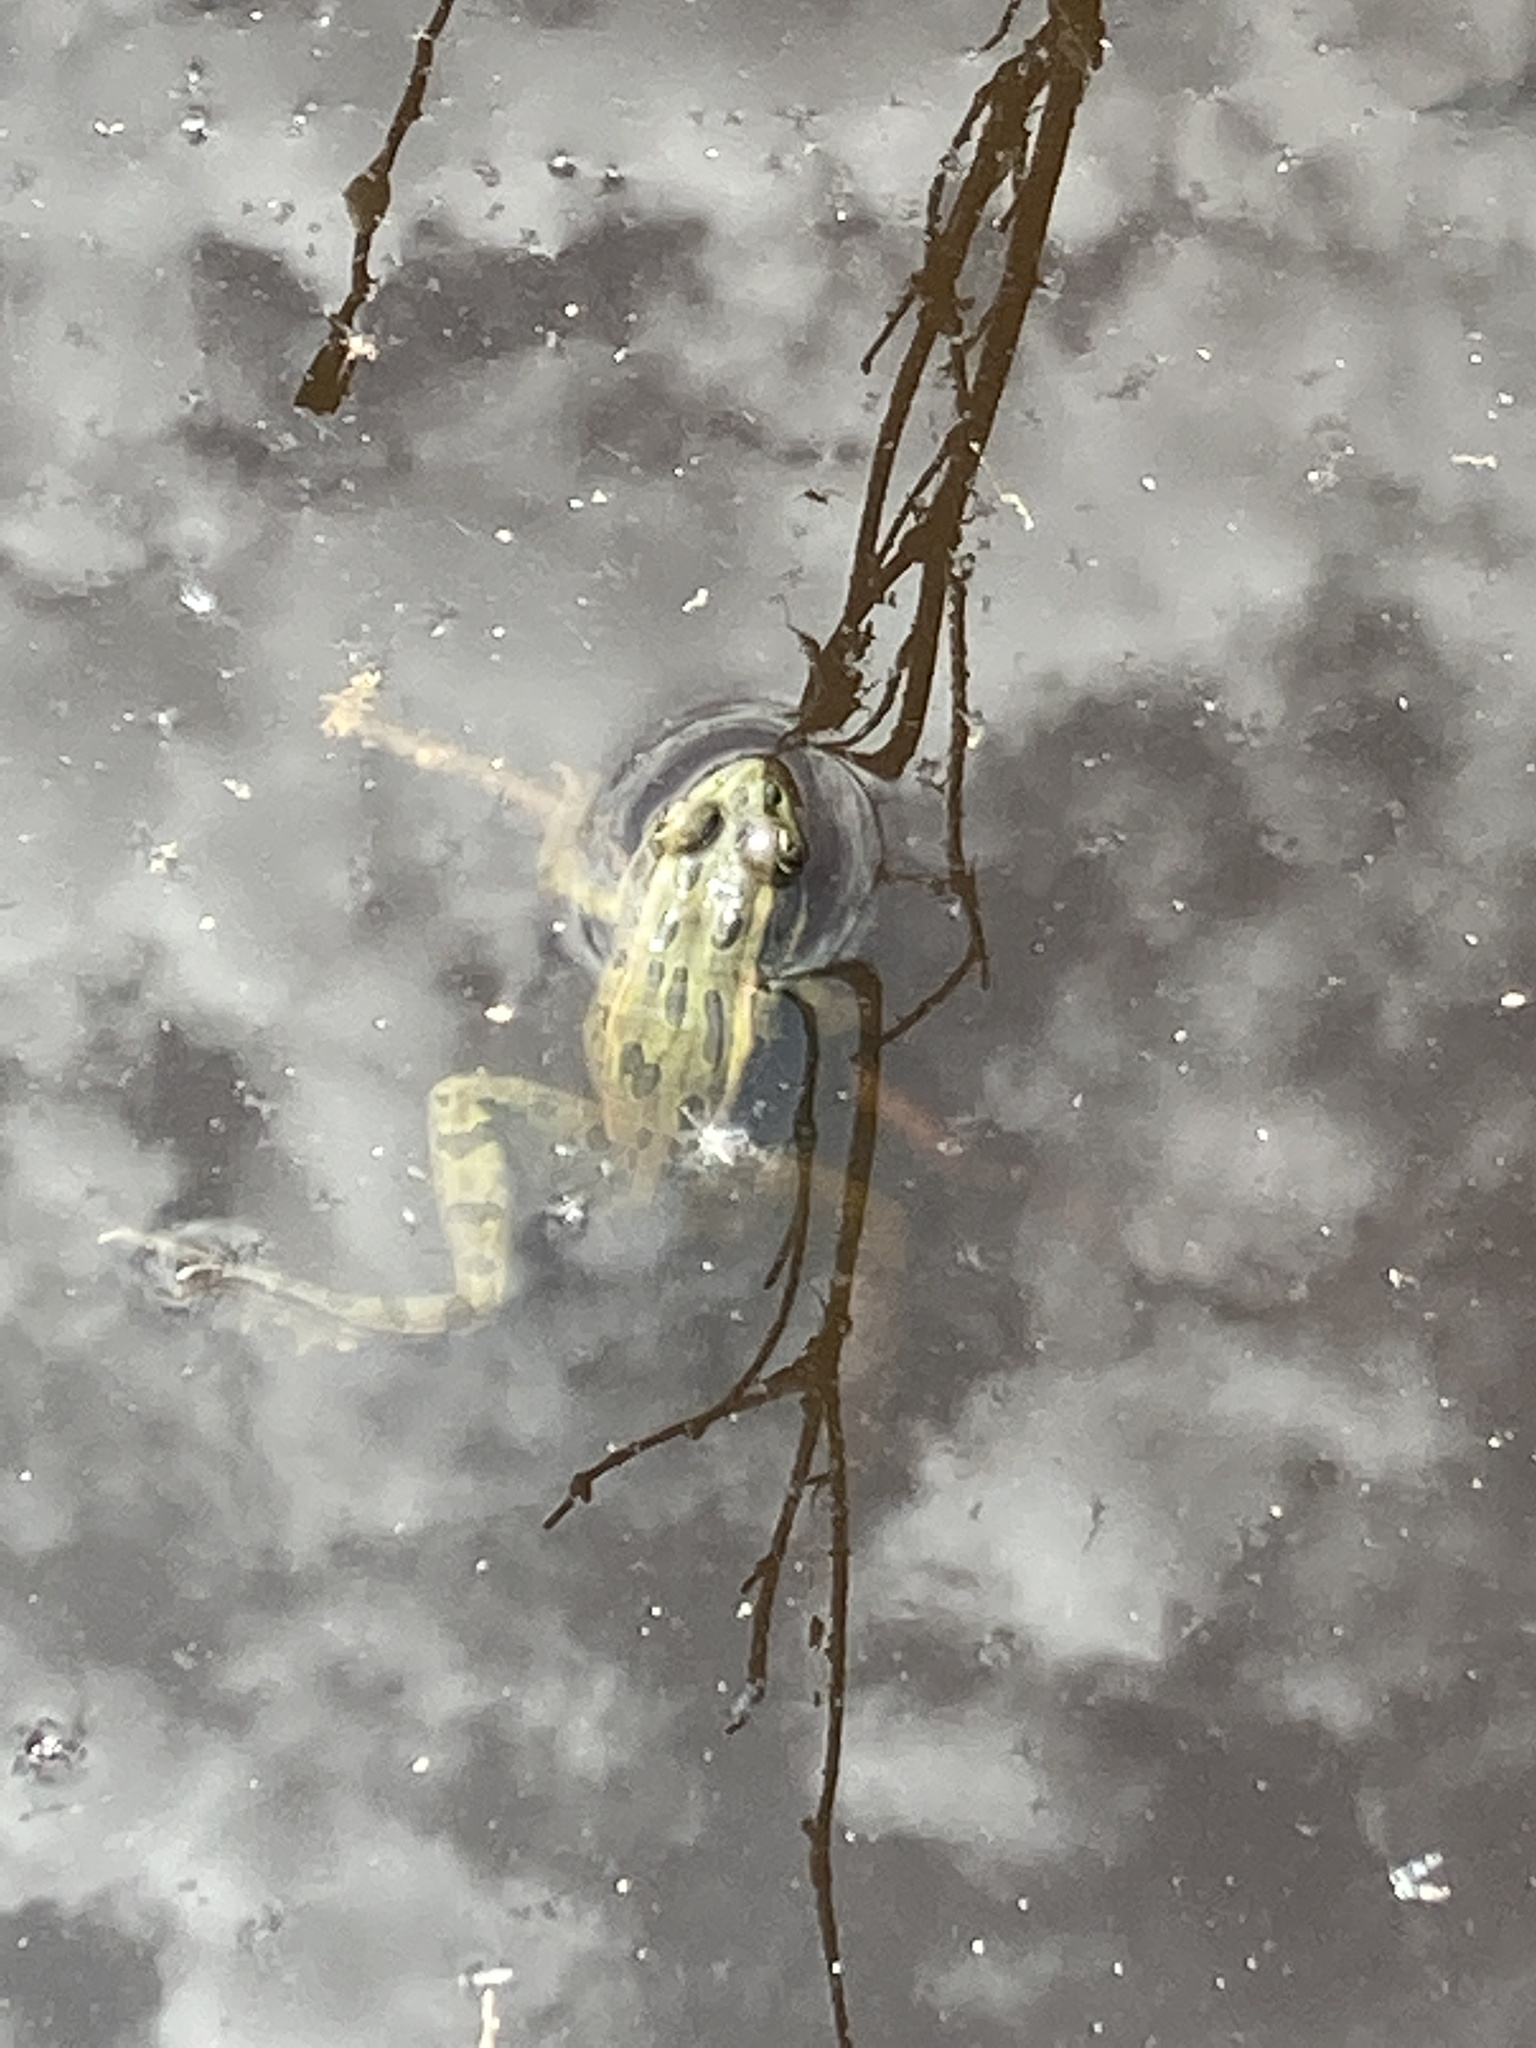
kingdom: Animalia
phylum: Chordata
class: Amphibia
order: Anura
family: Ranidae
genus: Lithobates
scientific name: Lithobates pipiens
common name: Northern leopard frog
